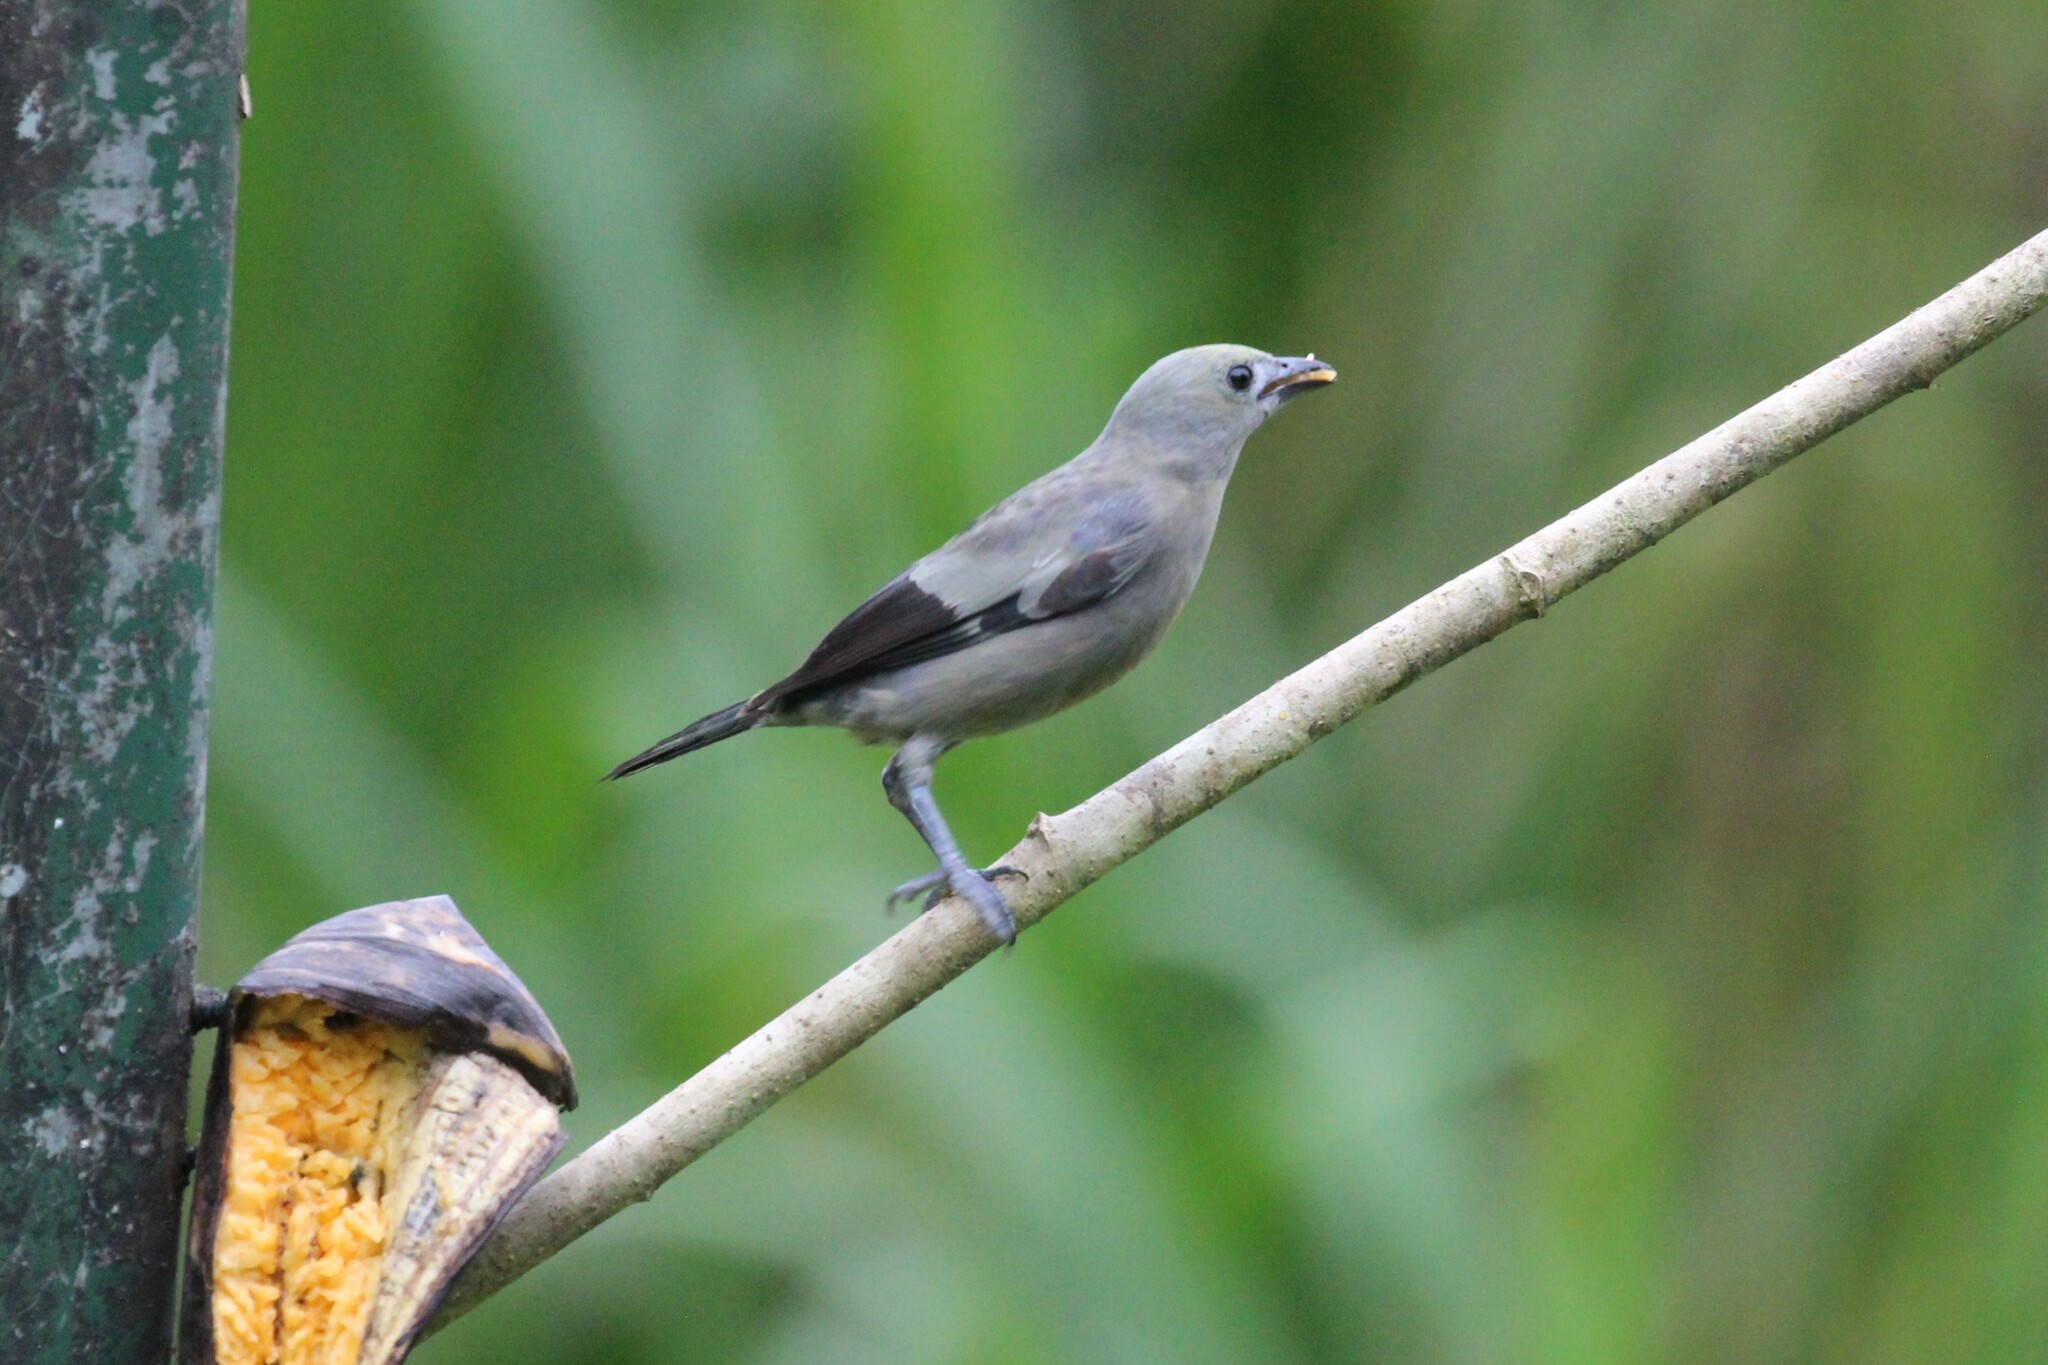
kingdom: Animalia
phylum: Chordata
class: Aves
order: Passeriformes
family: Thraupidae
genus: Thraupis
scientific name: Thraupis palmarum
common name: Palm tanager
